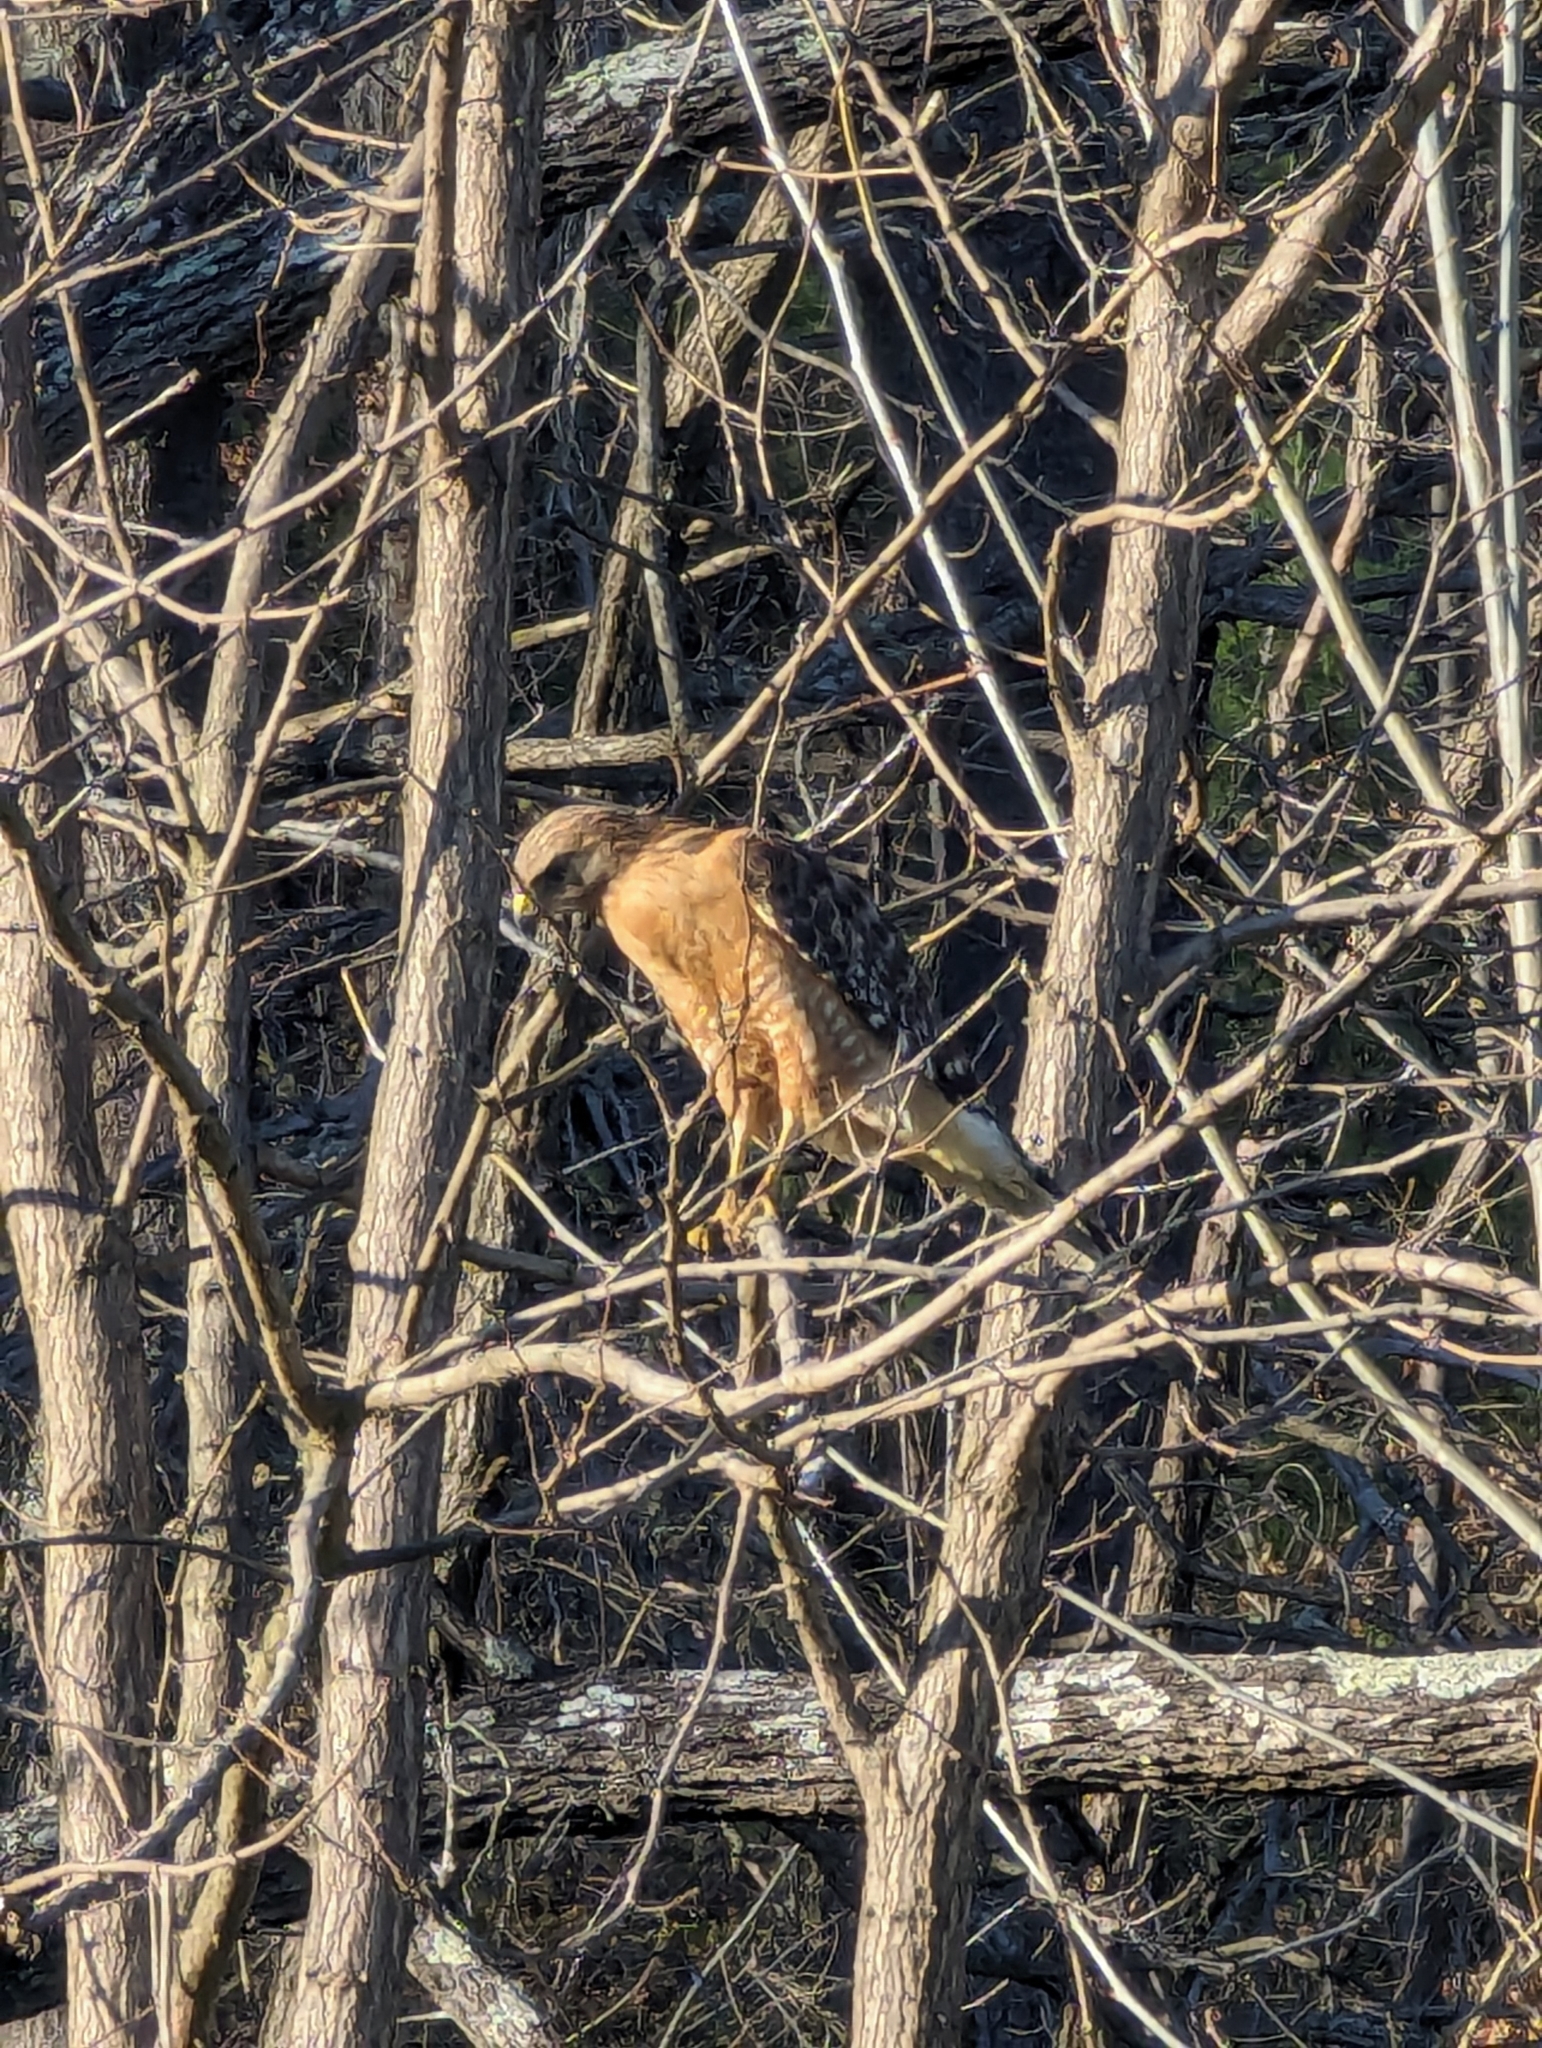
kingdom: Animalia
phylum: Chordata
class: Aves
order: Accipitriformes
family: Accipitridae
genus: Buteo
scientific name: Buteo lineatus
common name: Red-shouldered hawk
